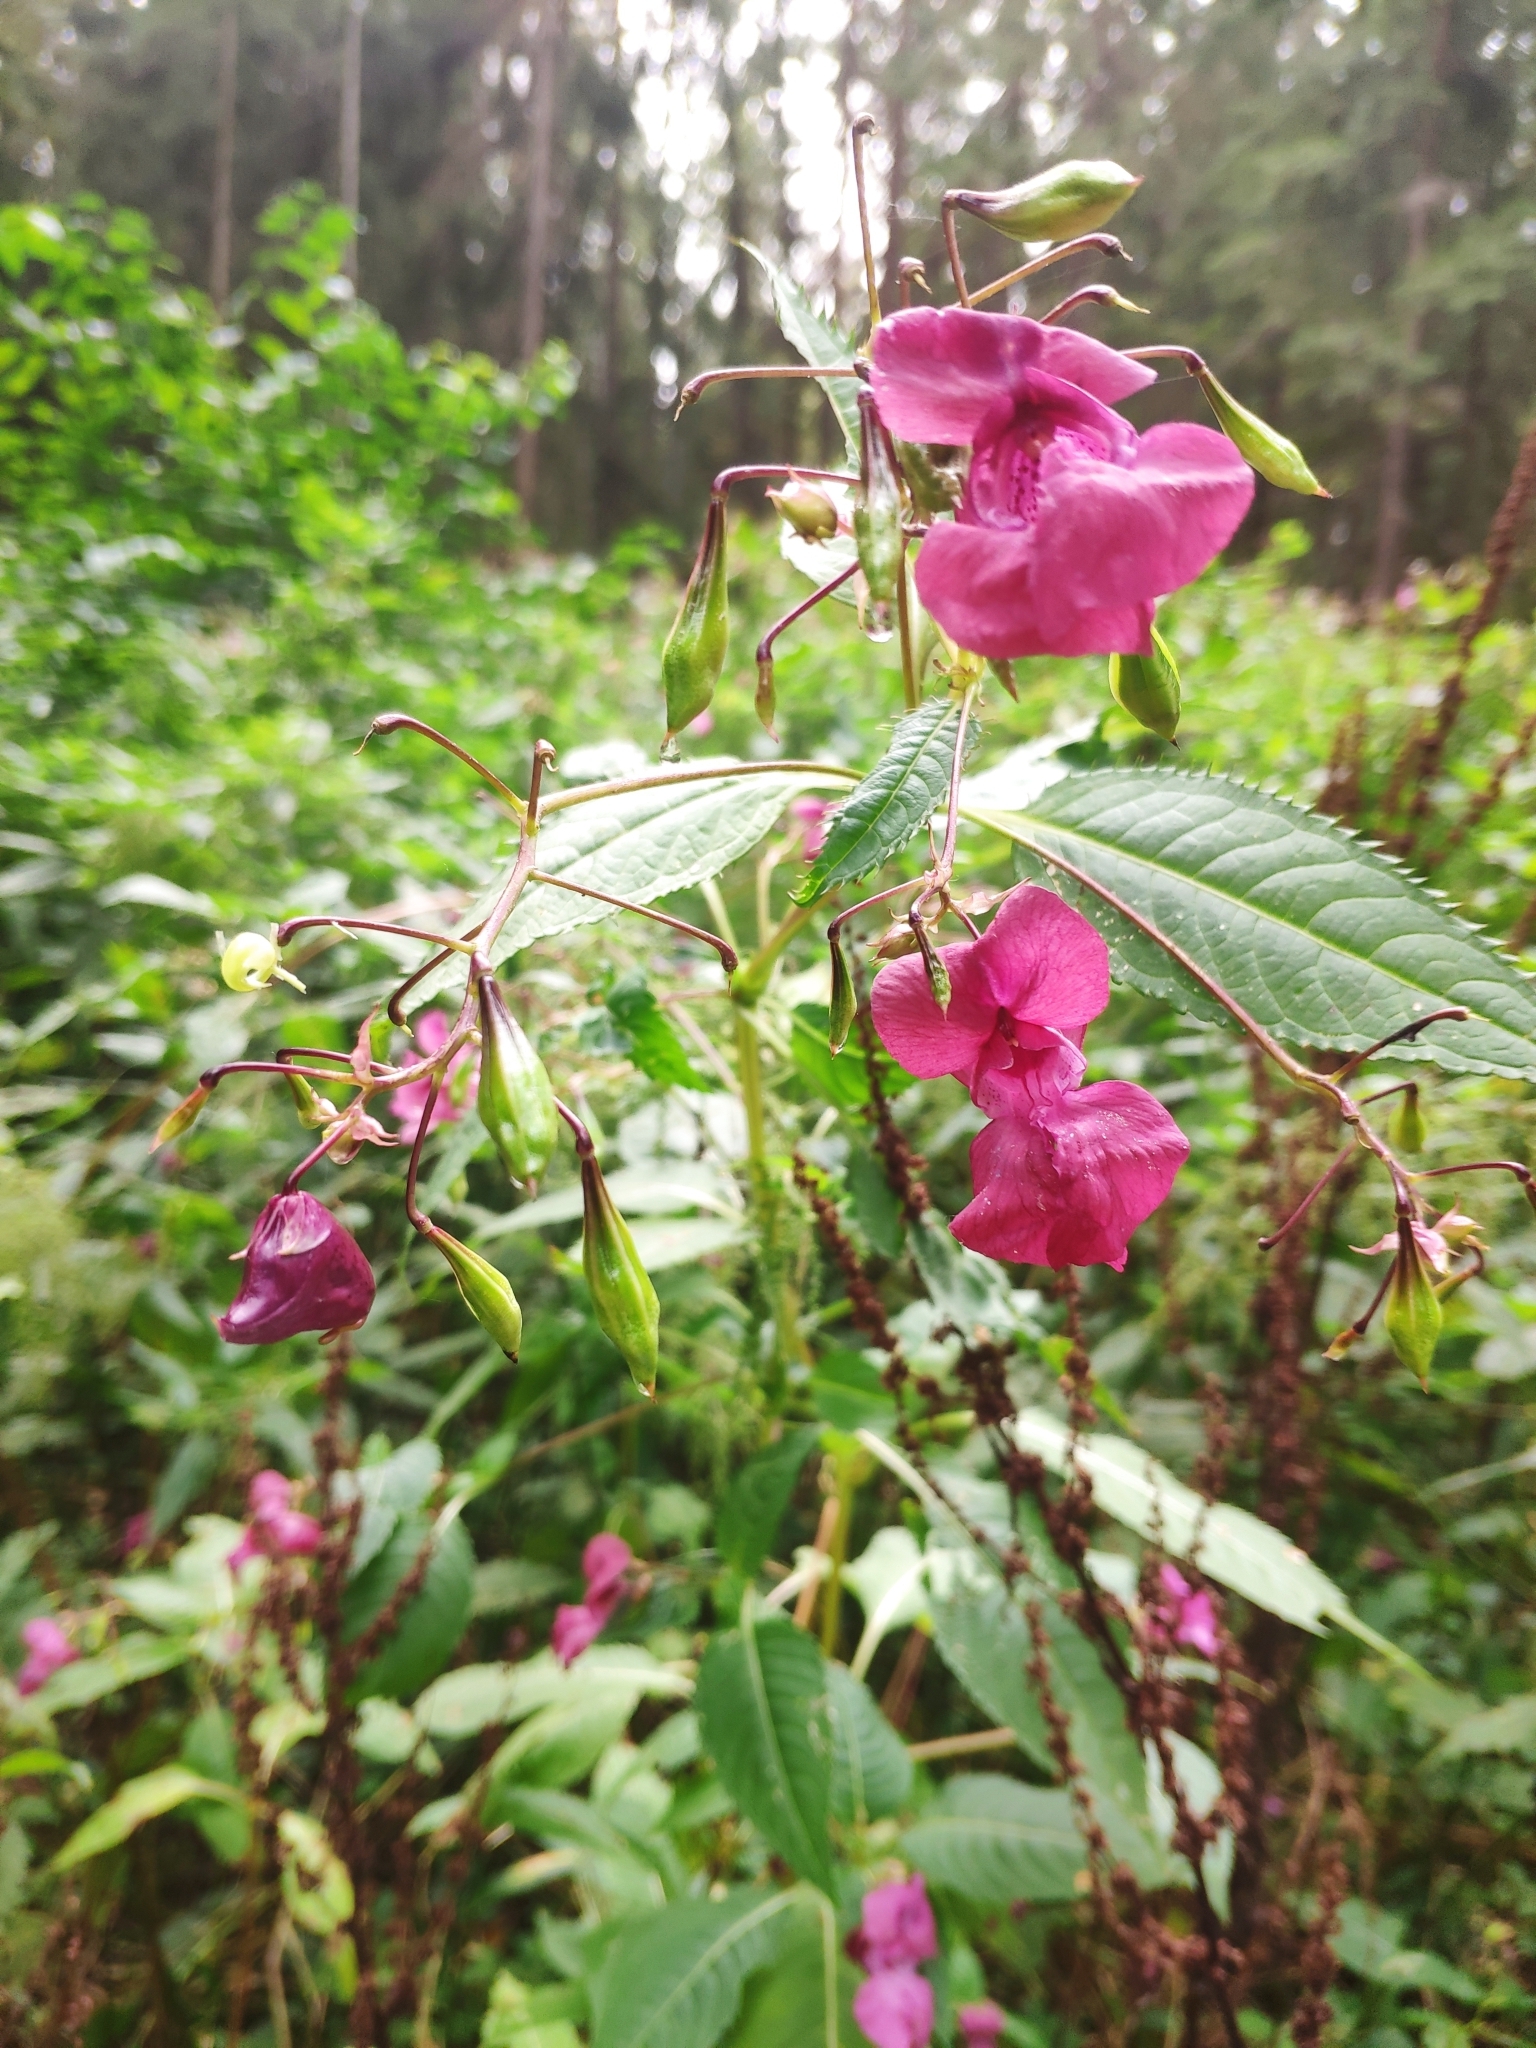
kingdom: Plantae
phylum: Tracheophyta
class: Magnoliopsida
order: Ericales
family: Balsaminaceae
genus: Impatiens
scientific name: Impatiens glandulifera
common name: Himalayan balsam
